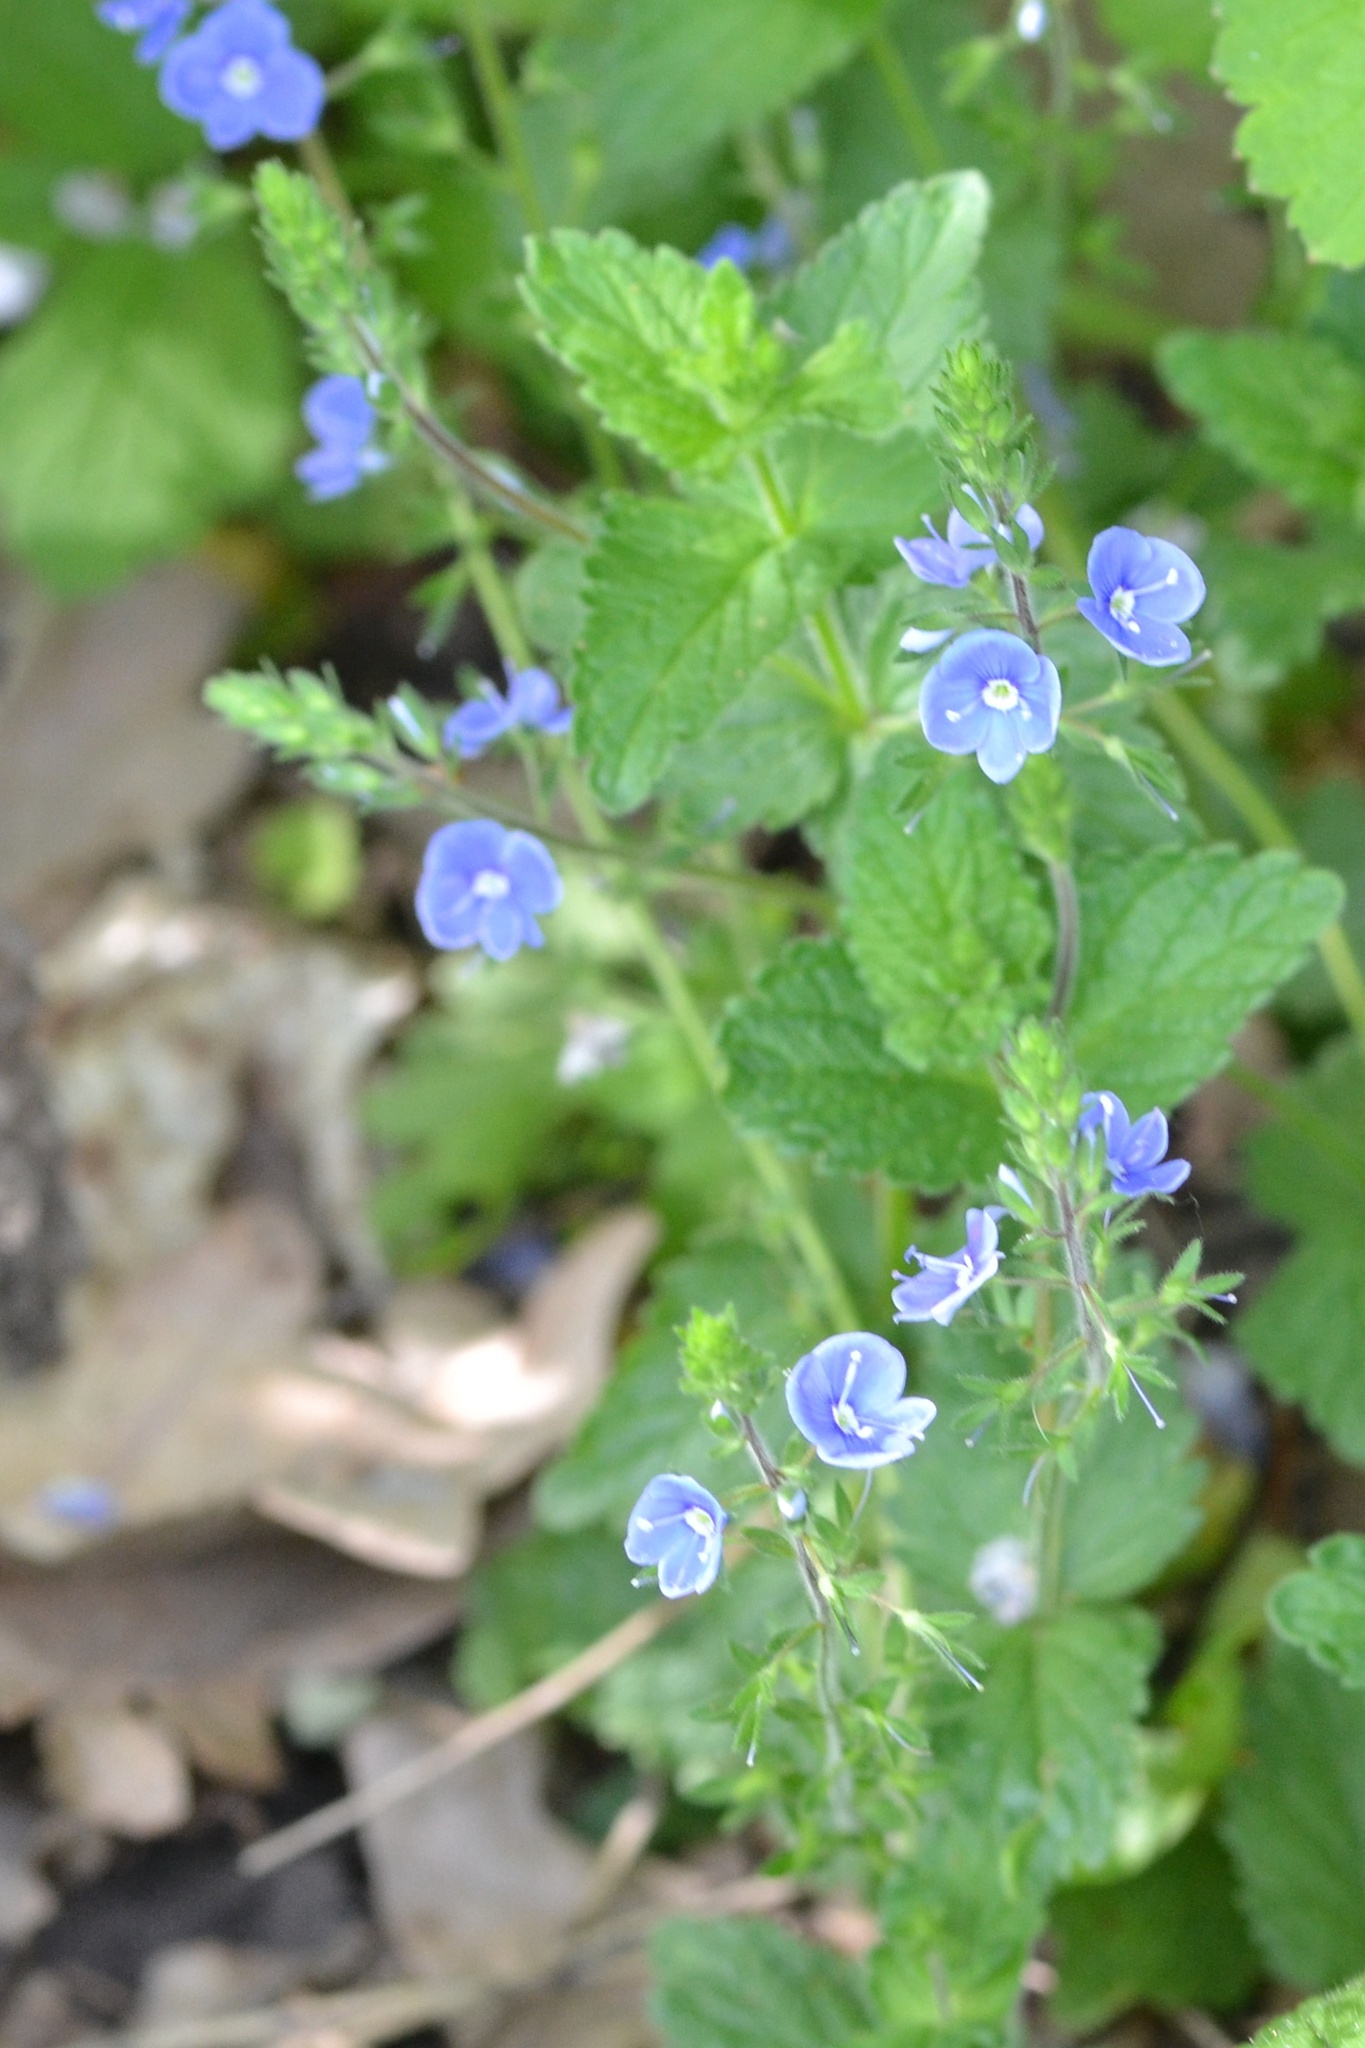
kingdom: Plantae
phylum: Tracheophyta
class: Magnoliopsida
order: Lamiales
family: Plantaginaceae
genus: Veronica
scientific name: Veronica chamaedrys
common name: Germander speedwell
